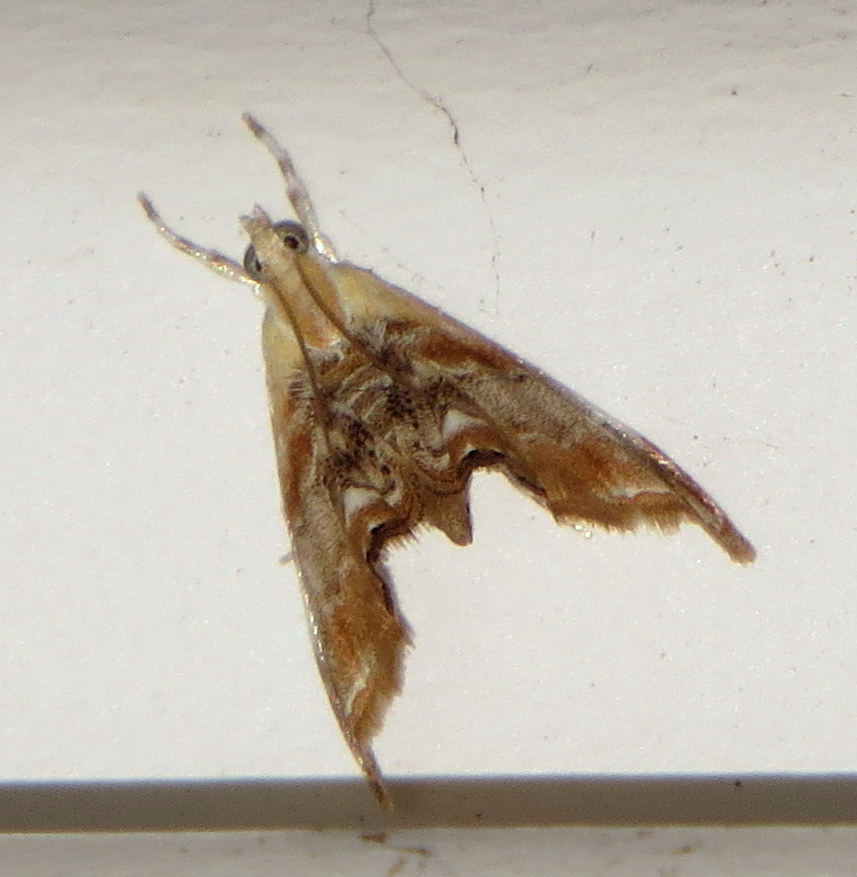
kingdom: Animalia
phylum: Arthropoda
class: Insecta
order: Lepidoptera
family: Crambidae
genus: Dicymolomia
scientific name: Dicymolomia julianalis
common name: Julia's dicymolomia moth
